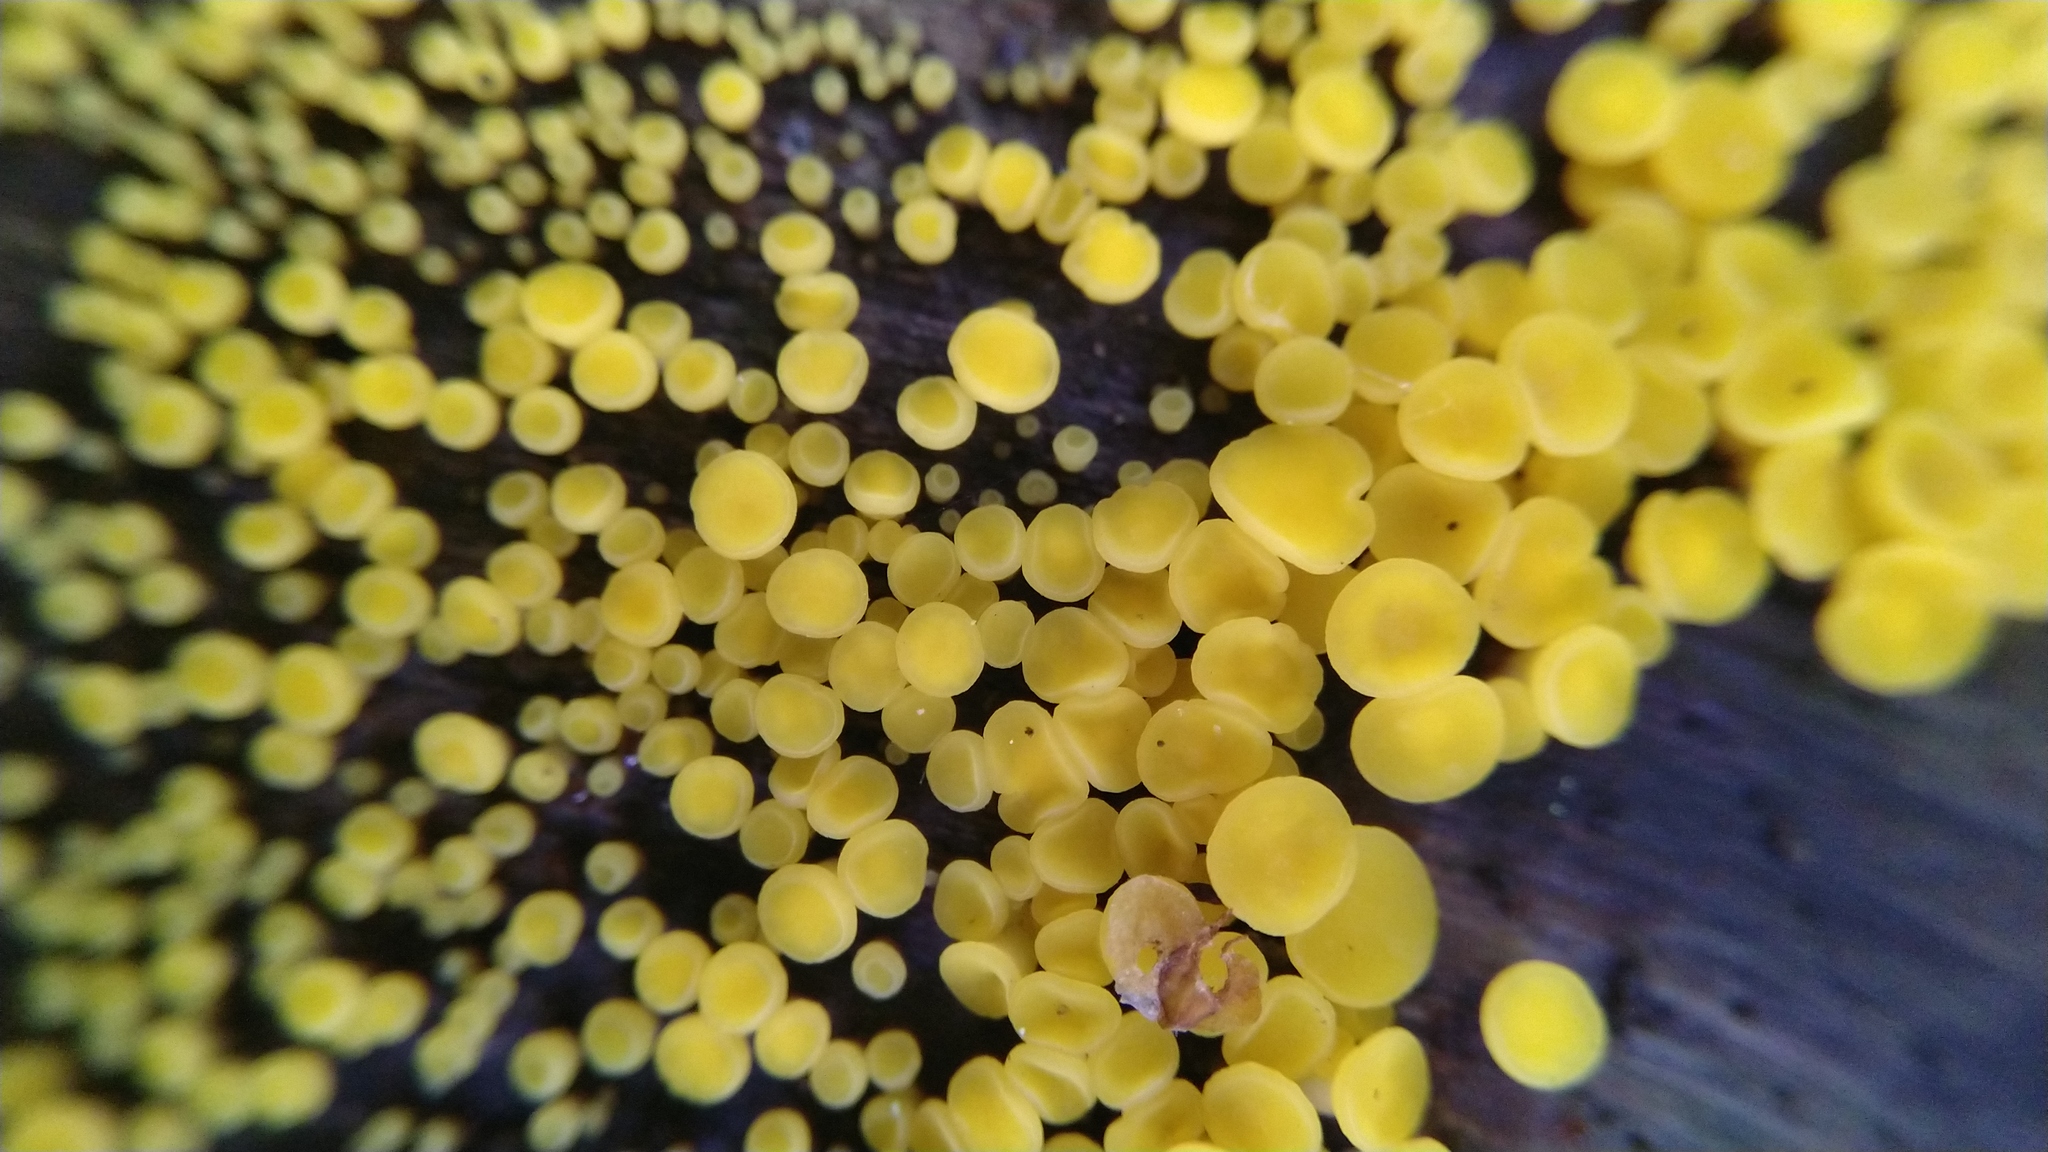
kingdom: Fungi
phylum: Ascomycota
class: Leotiomycetes
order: Helotiales
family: Pezizellaceae
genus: Calycina
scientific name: Calycina citrina
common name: Yellow fairy cups
